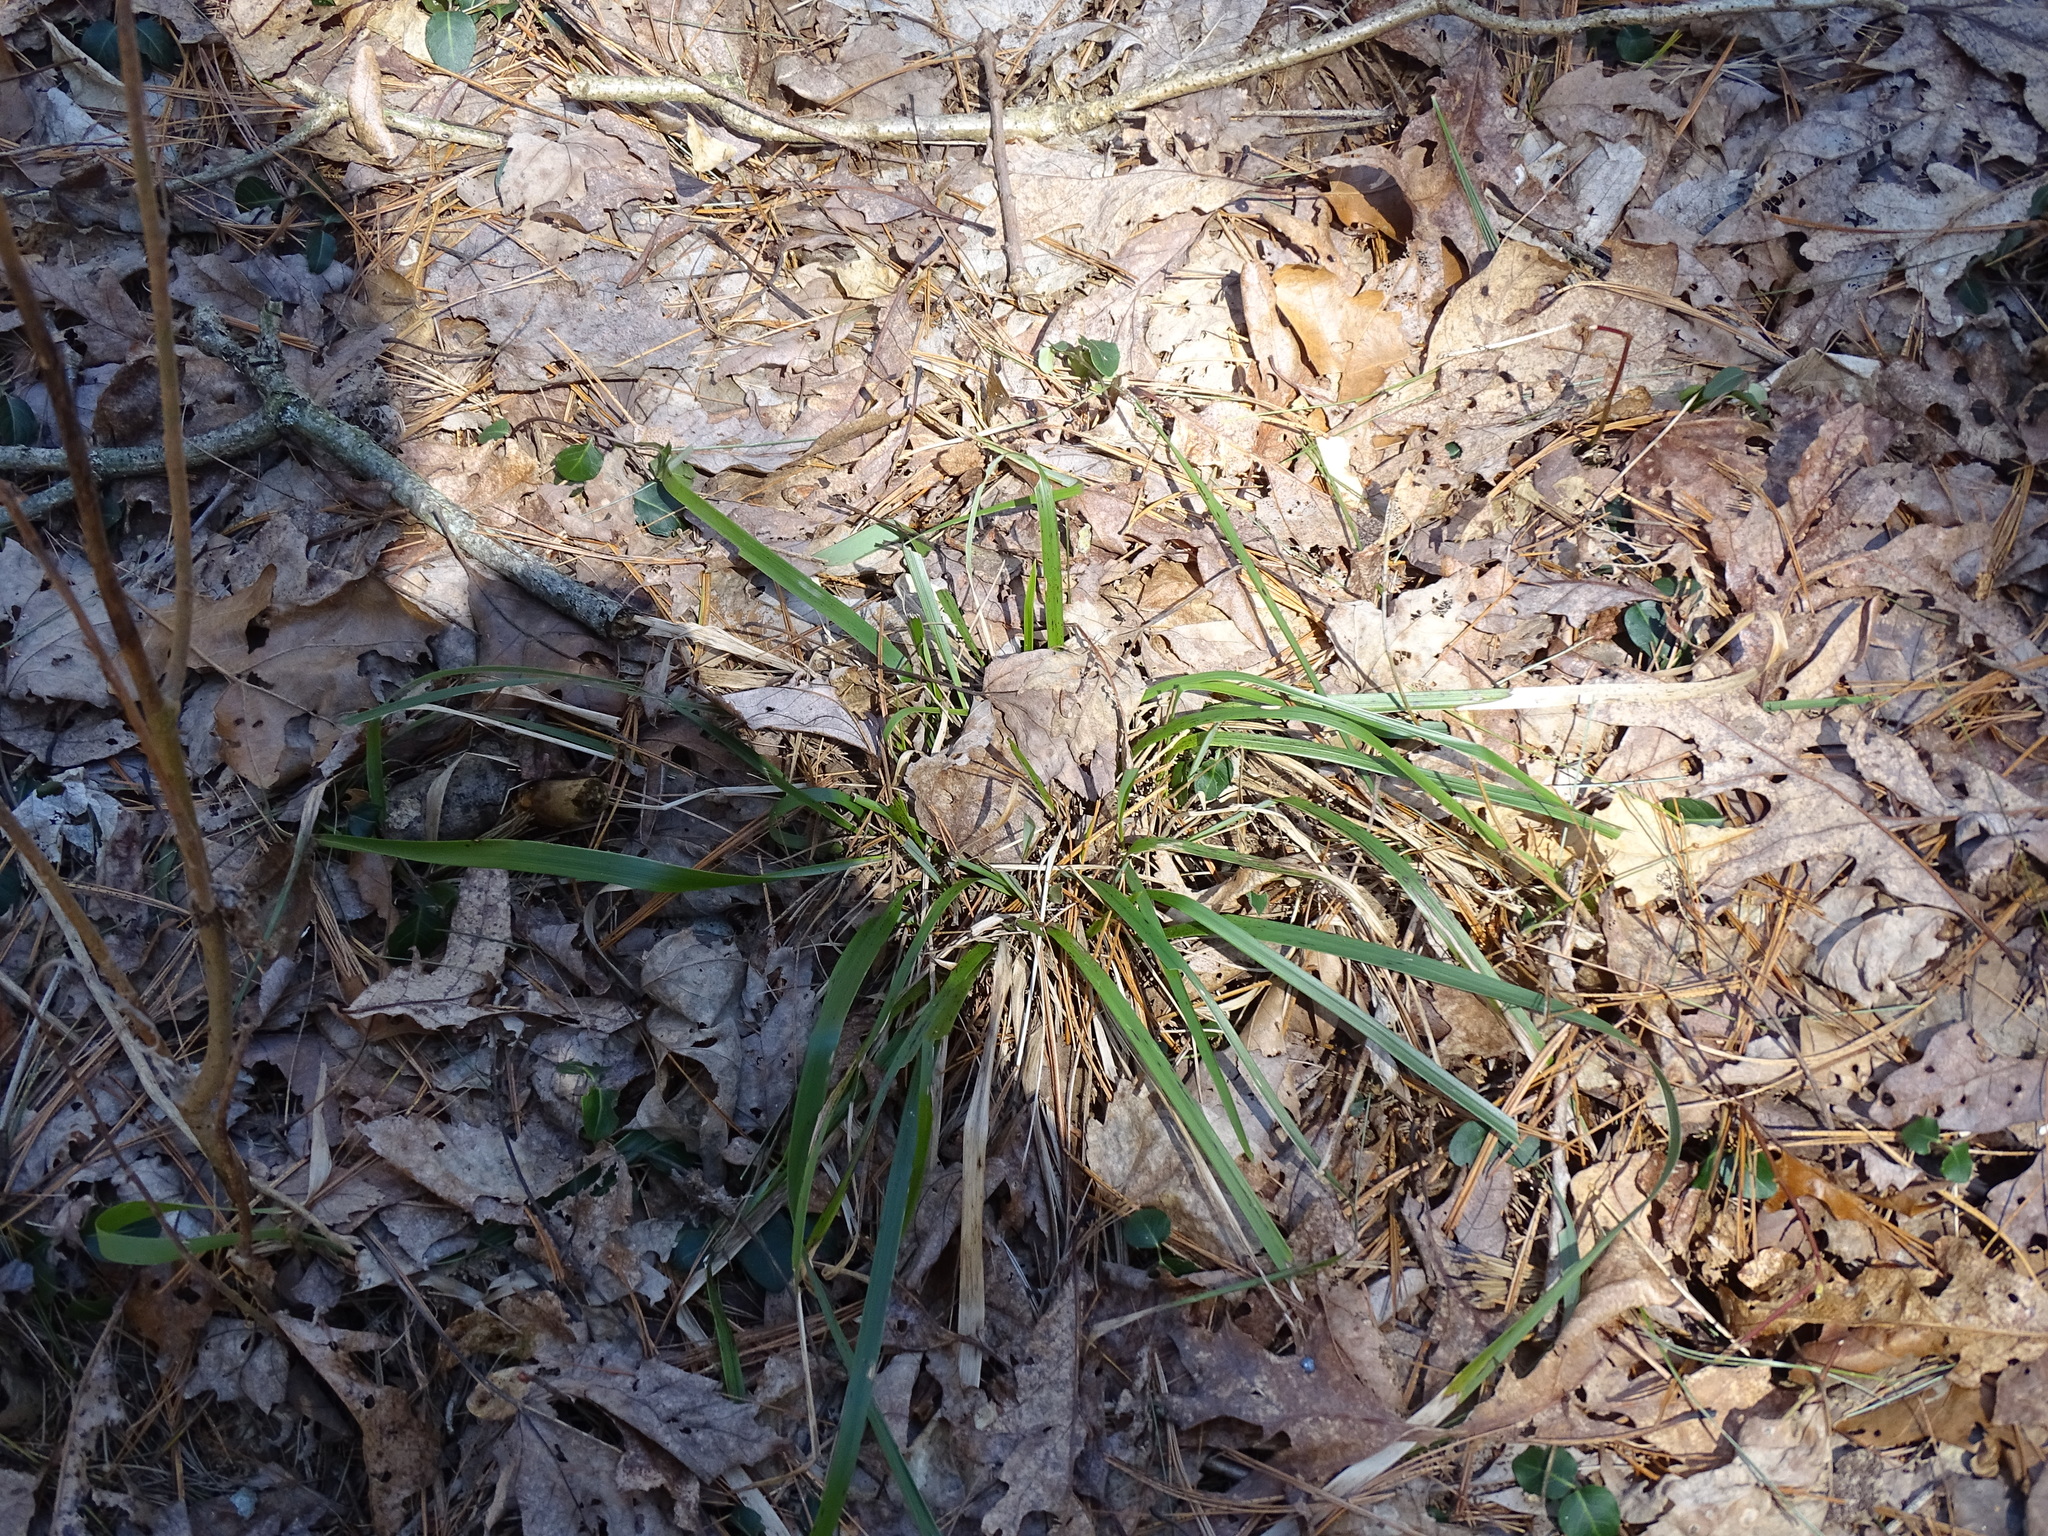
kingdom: Plantae
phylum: Tracheophyta
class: Liliopsida
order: Poales
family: Poaceae
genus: Oryzopsis
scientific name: Oryzopsis asperifolia
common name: Rough-leaved mountain rice
